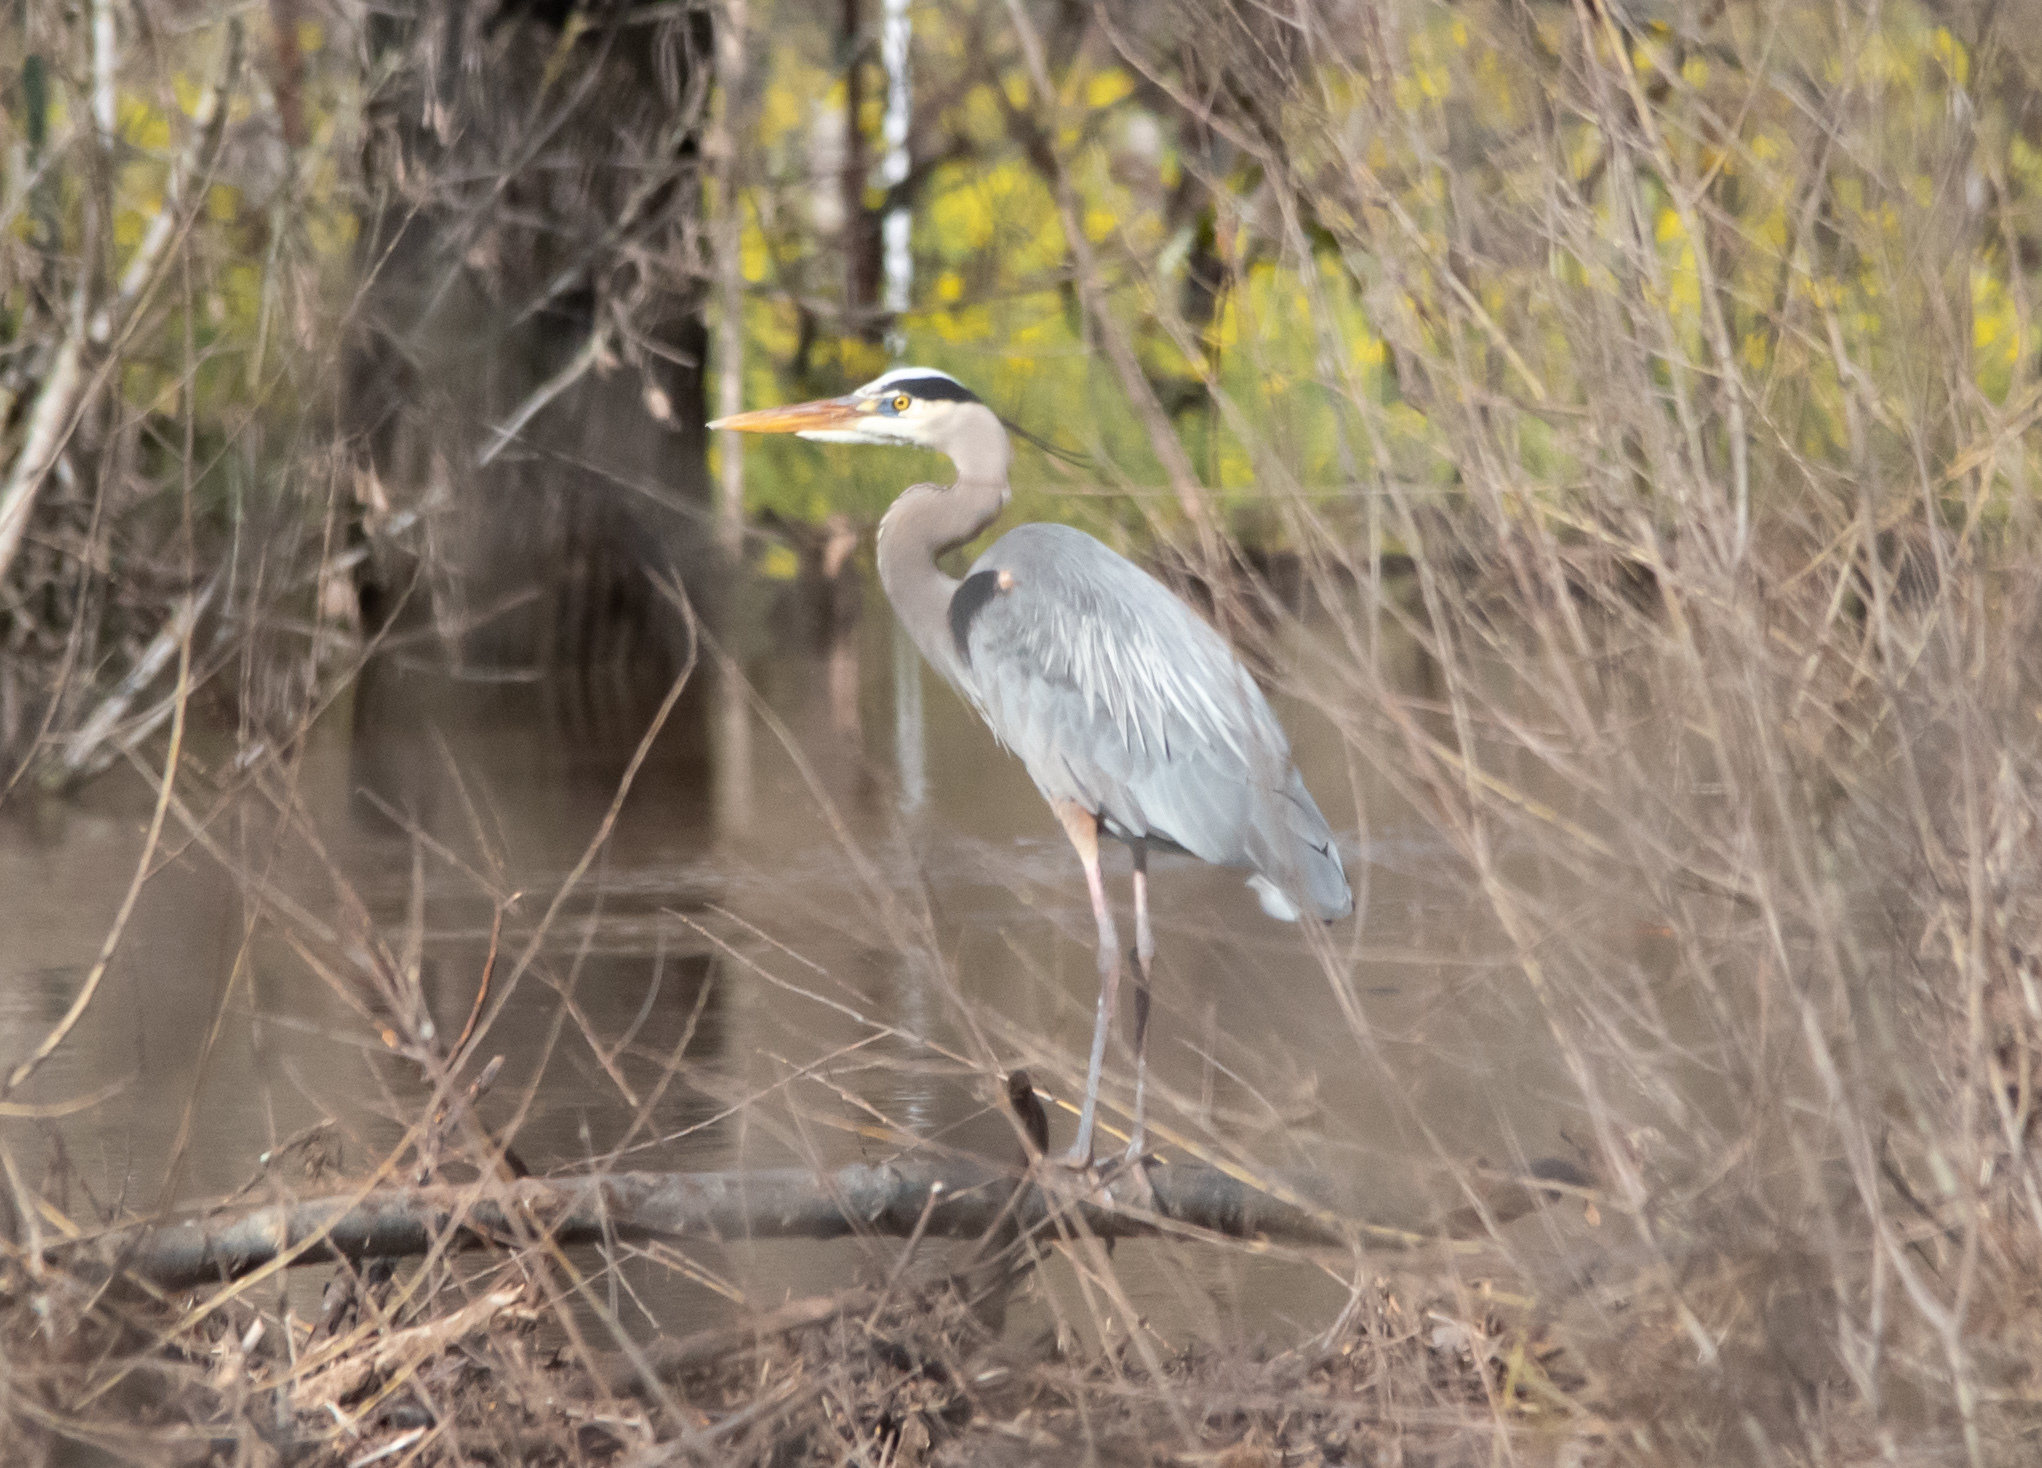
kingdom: Animalia
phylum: Chordata
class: Aves
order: Pelecaniformes
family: Ardeidae
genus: Ardea
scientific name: Ardea herodias
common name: Great blue heron
